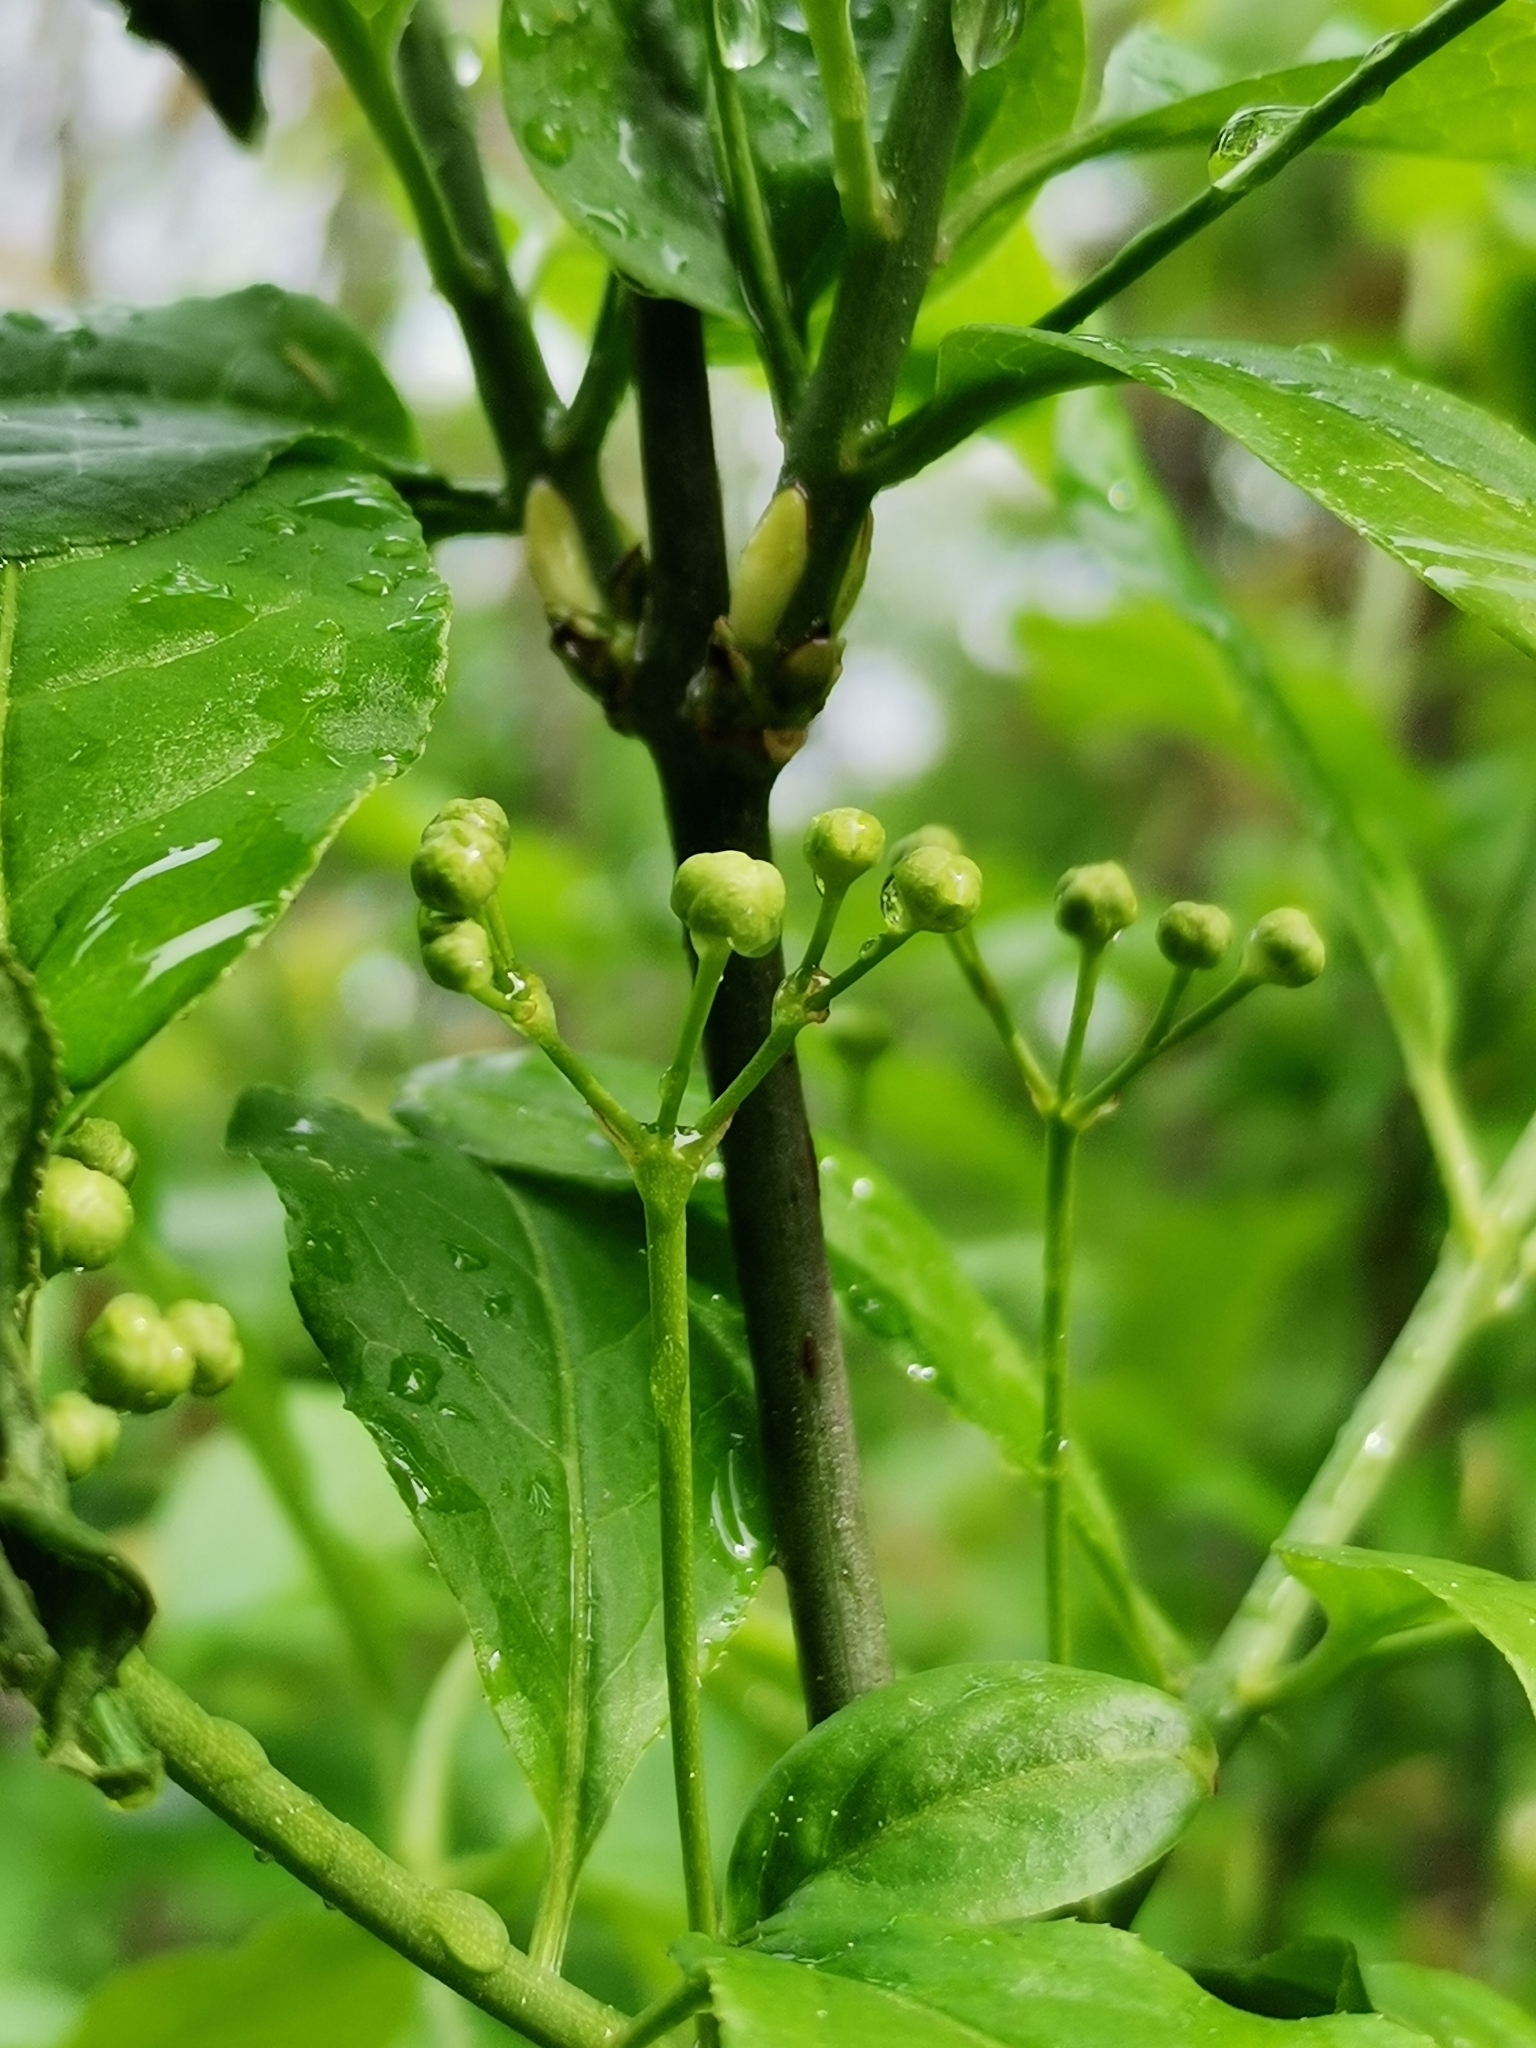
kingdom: Plantae
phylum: Tracheophyta
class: Magnoliopsida
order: Celastrales
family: Celastraceae
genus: Euonymus
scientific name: Euonymus europaeus
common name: Spindle
